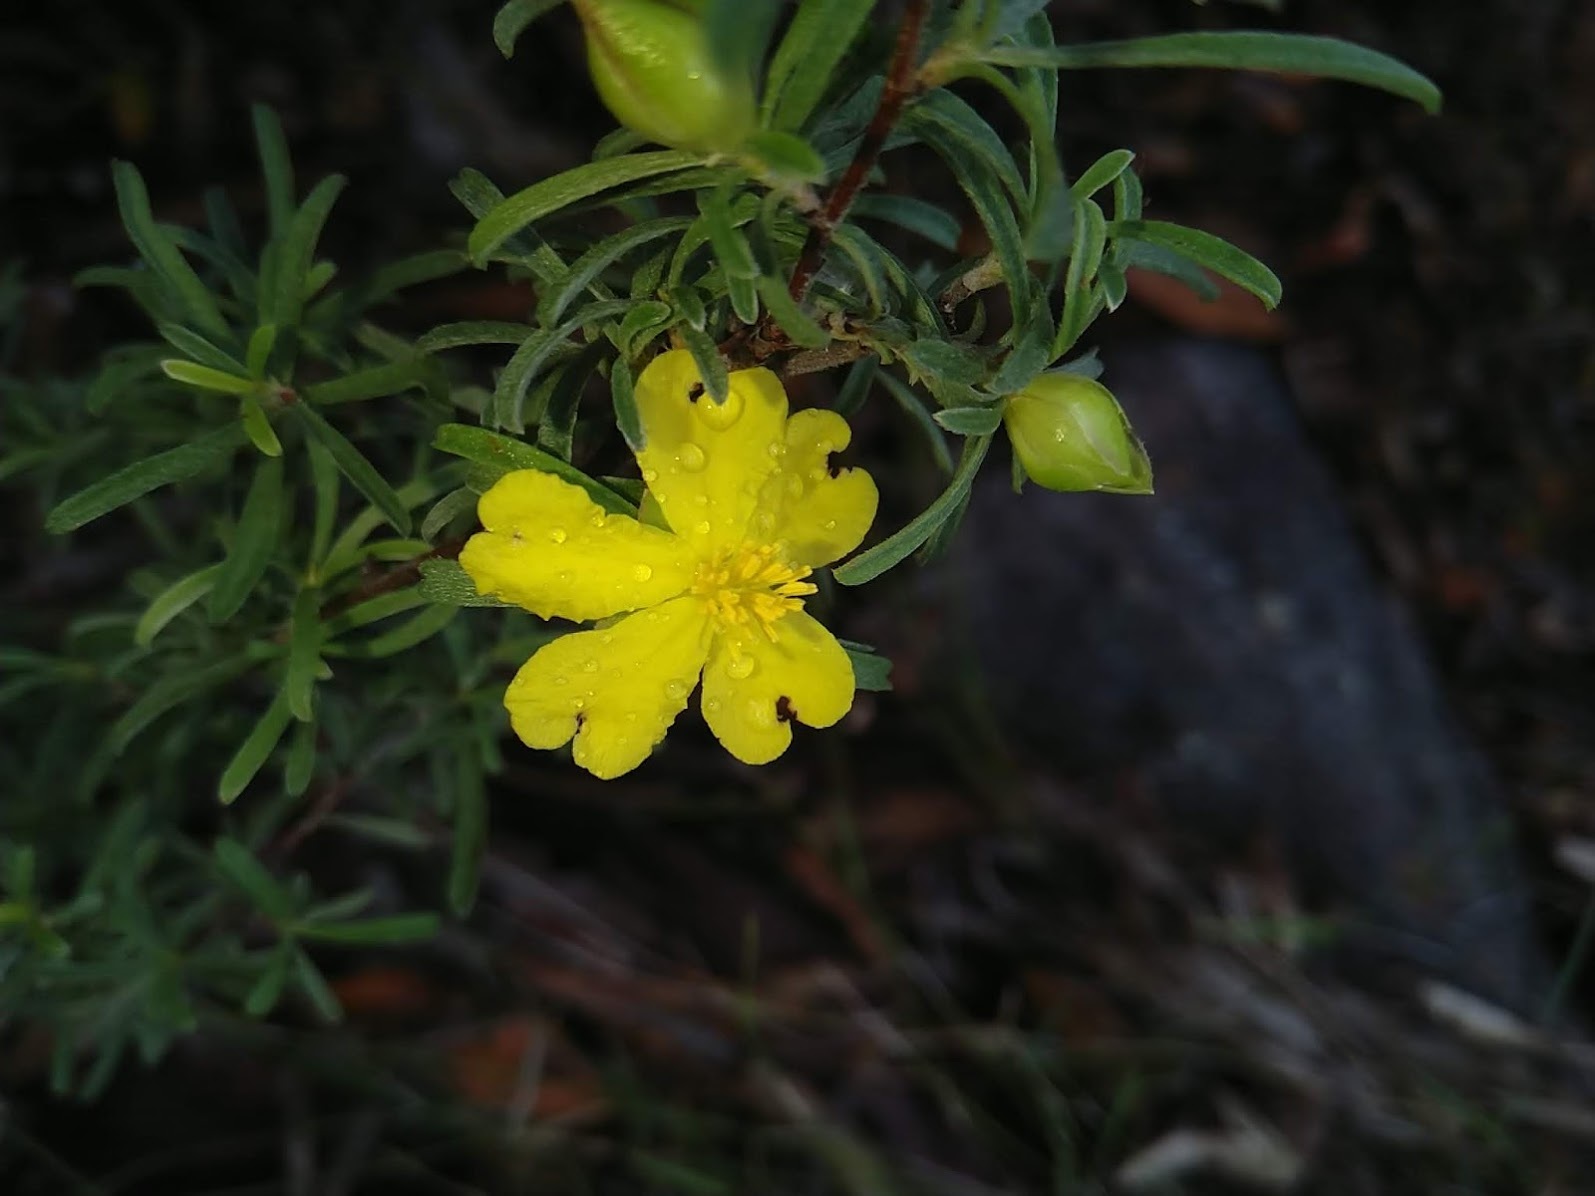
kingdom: Plantae
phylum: Tracheophyta
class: Magnoliopsida
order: Dilleniales
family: Dilleniaceae
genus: Hibbertia
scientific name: Hibbertia linearis
